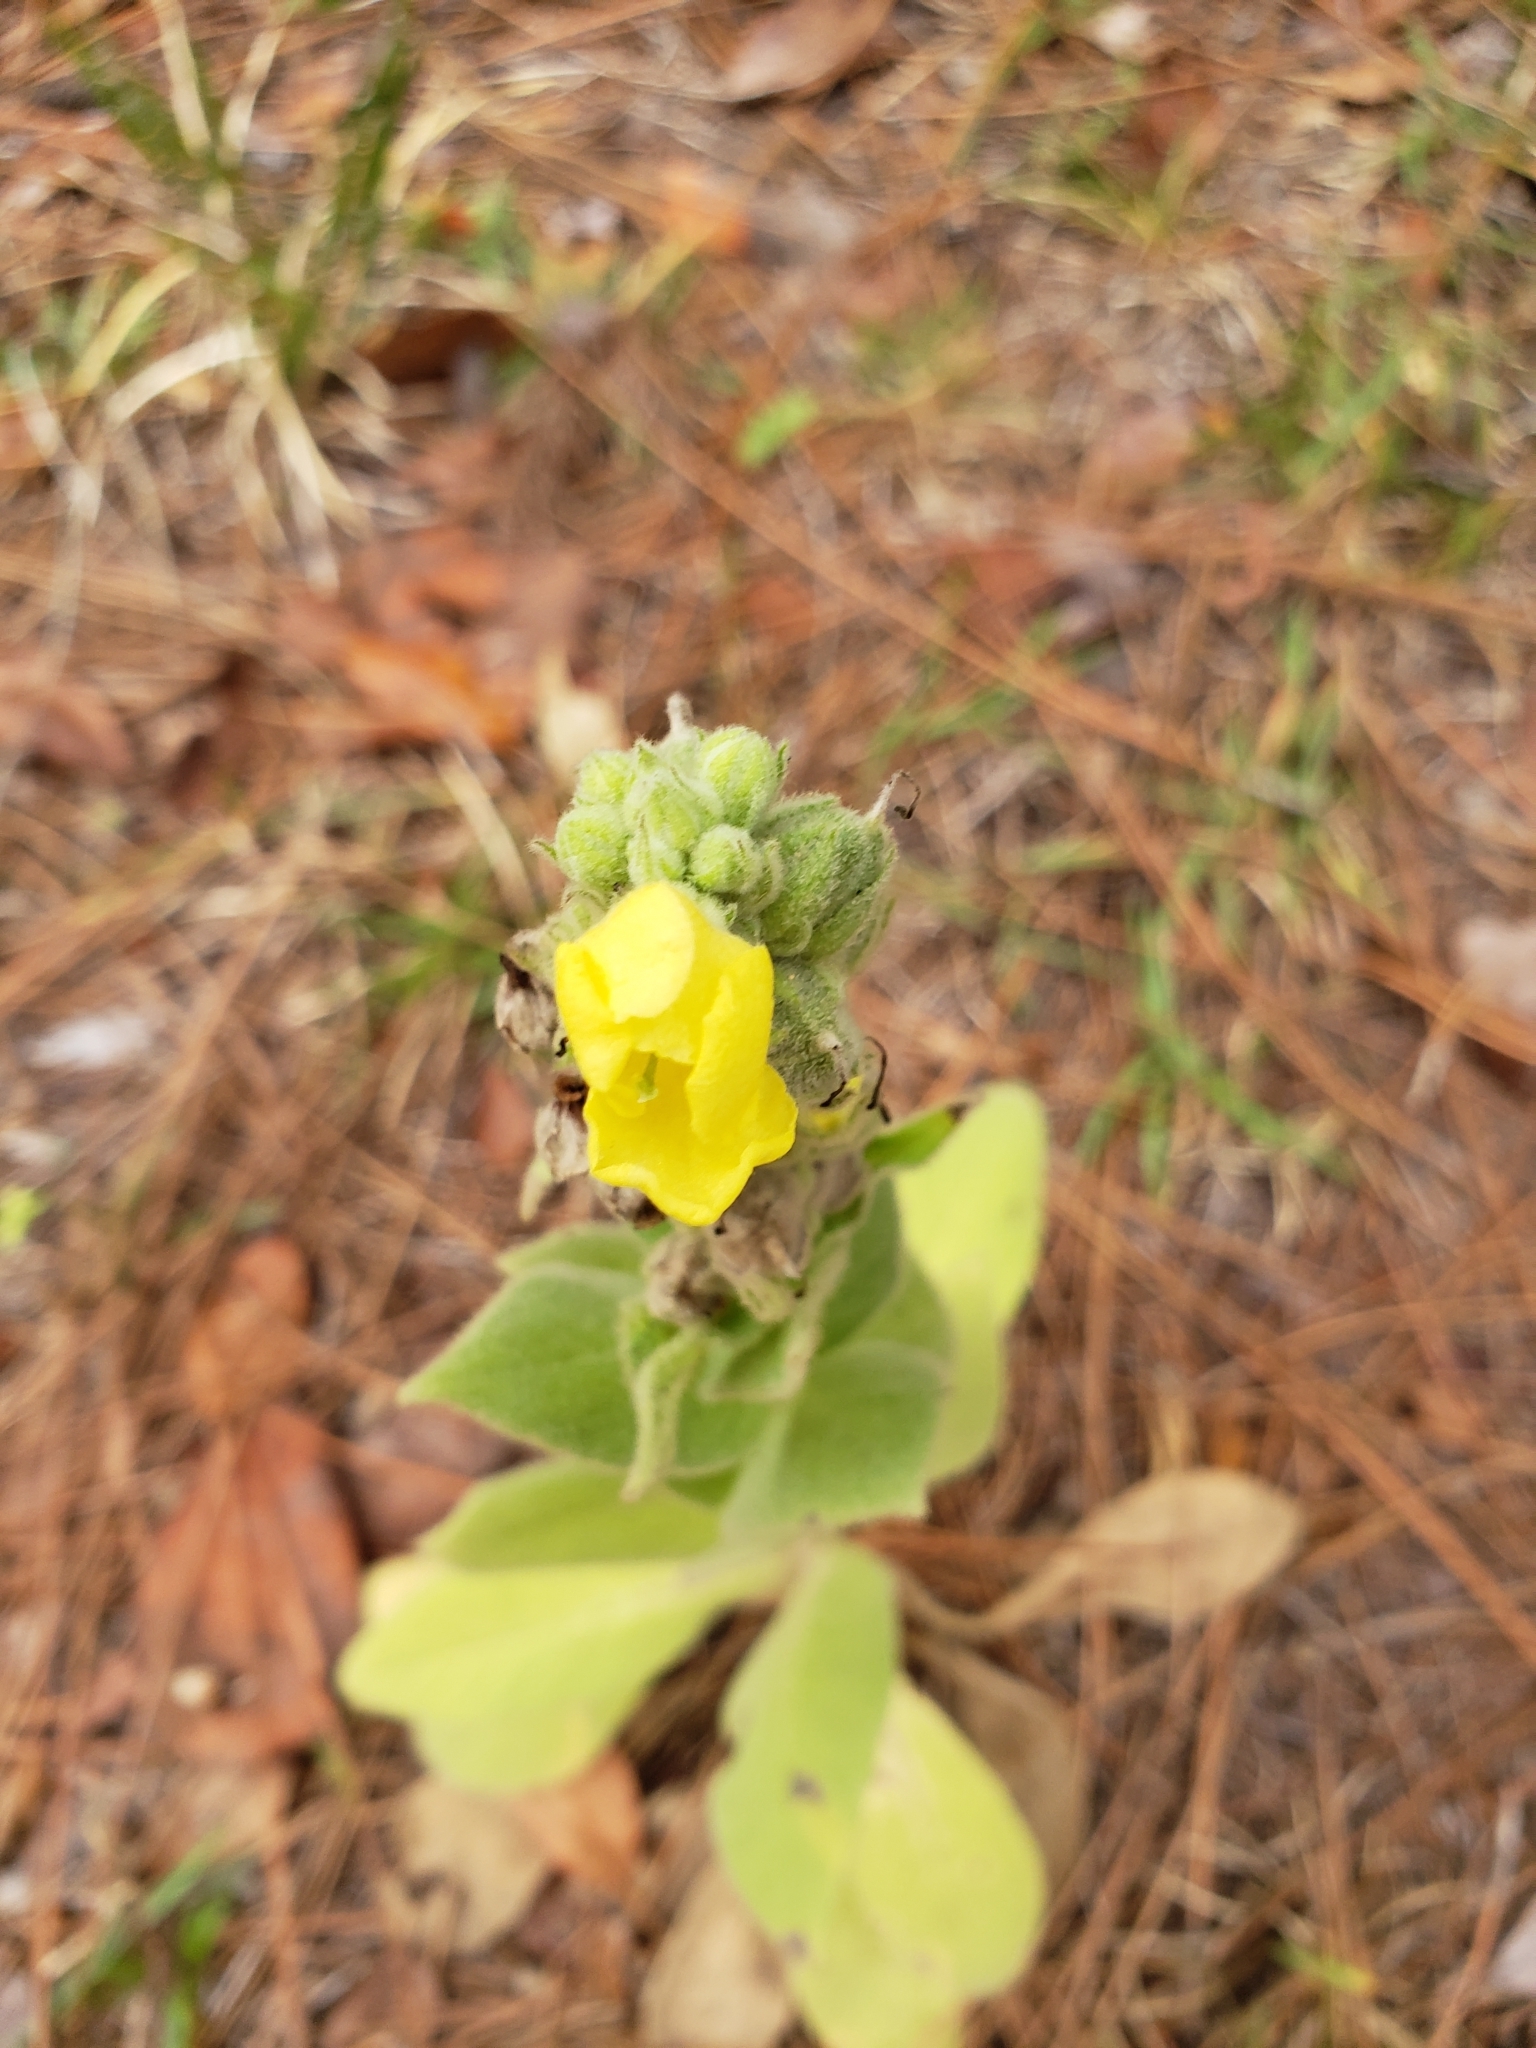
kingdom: Plantae
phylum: Tracheophyta
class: Magnoliopsida
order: Lamiales
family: Scrophulariaceae
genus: Verbascum
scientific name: Verbascum thapsus
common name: Common mullein
